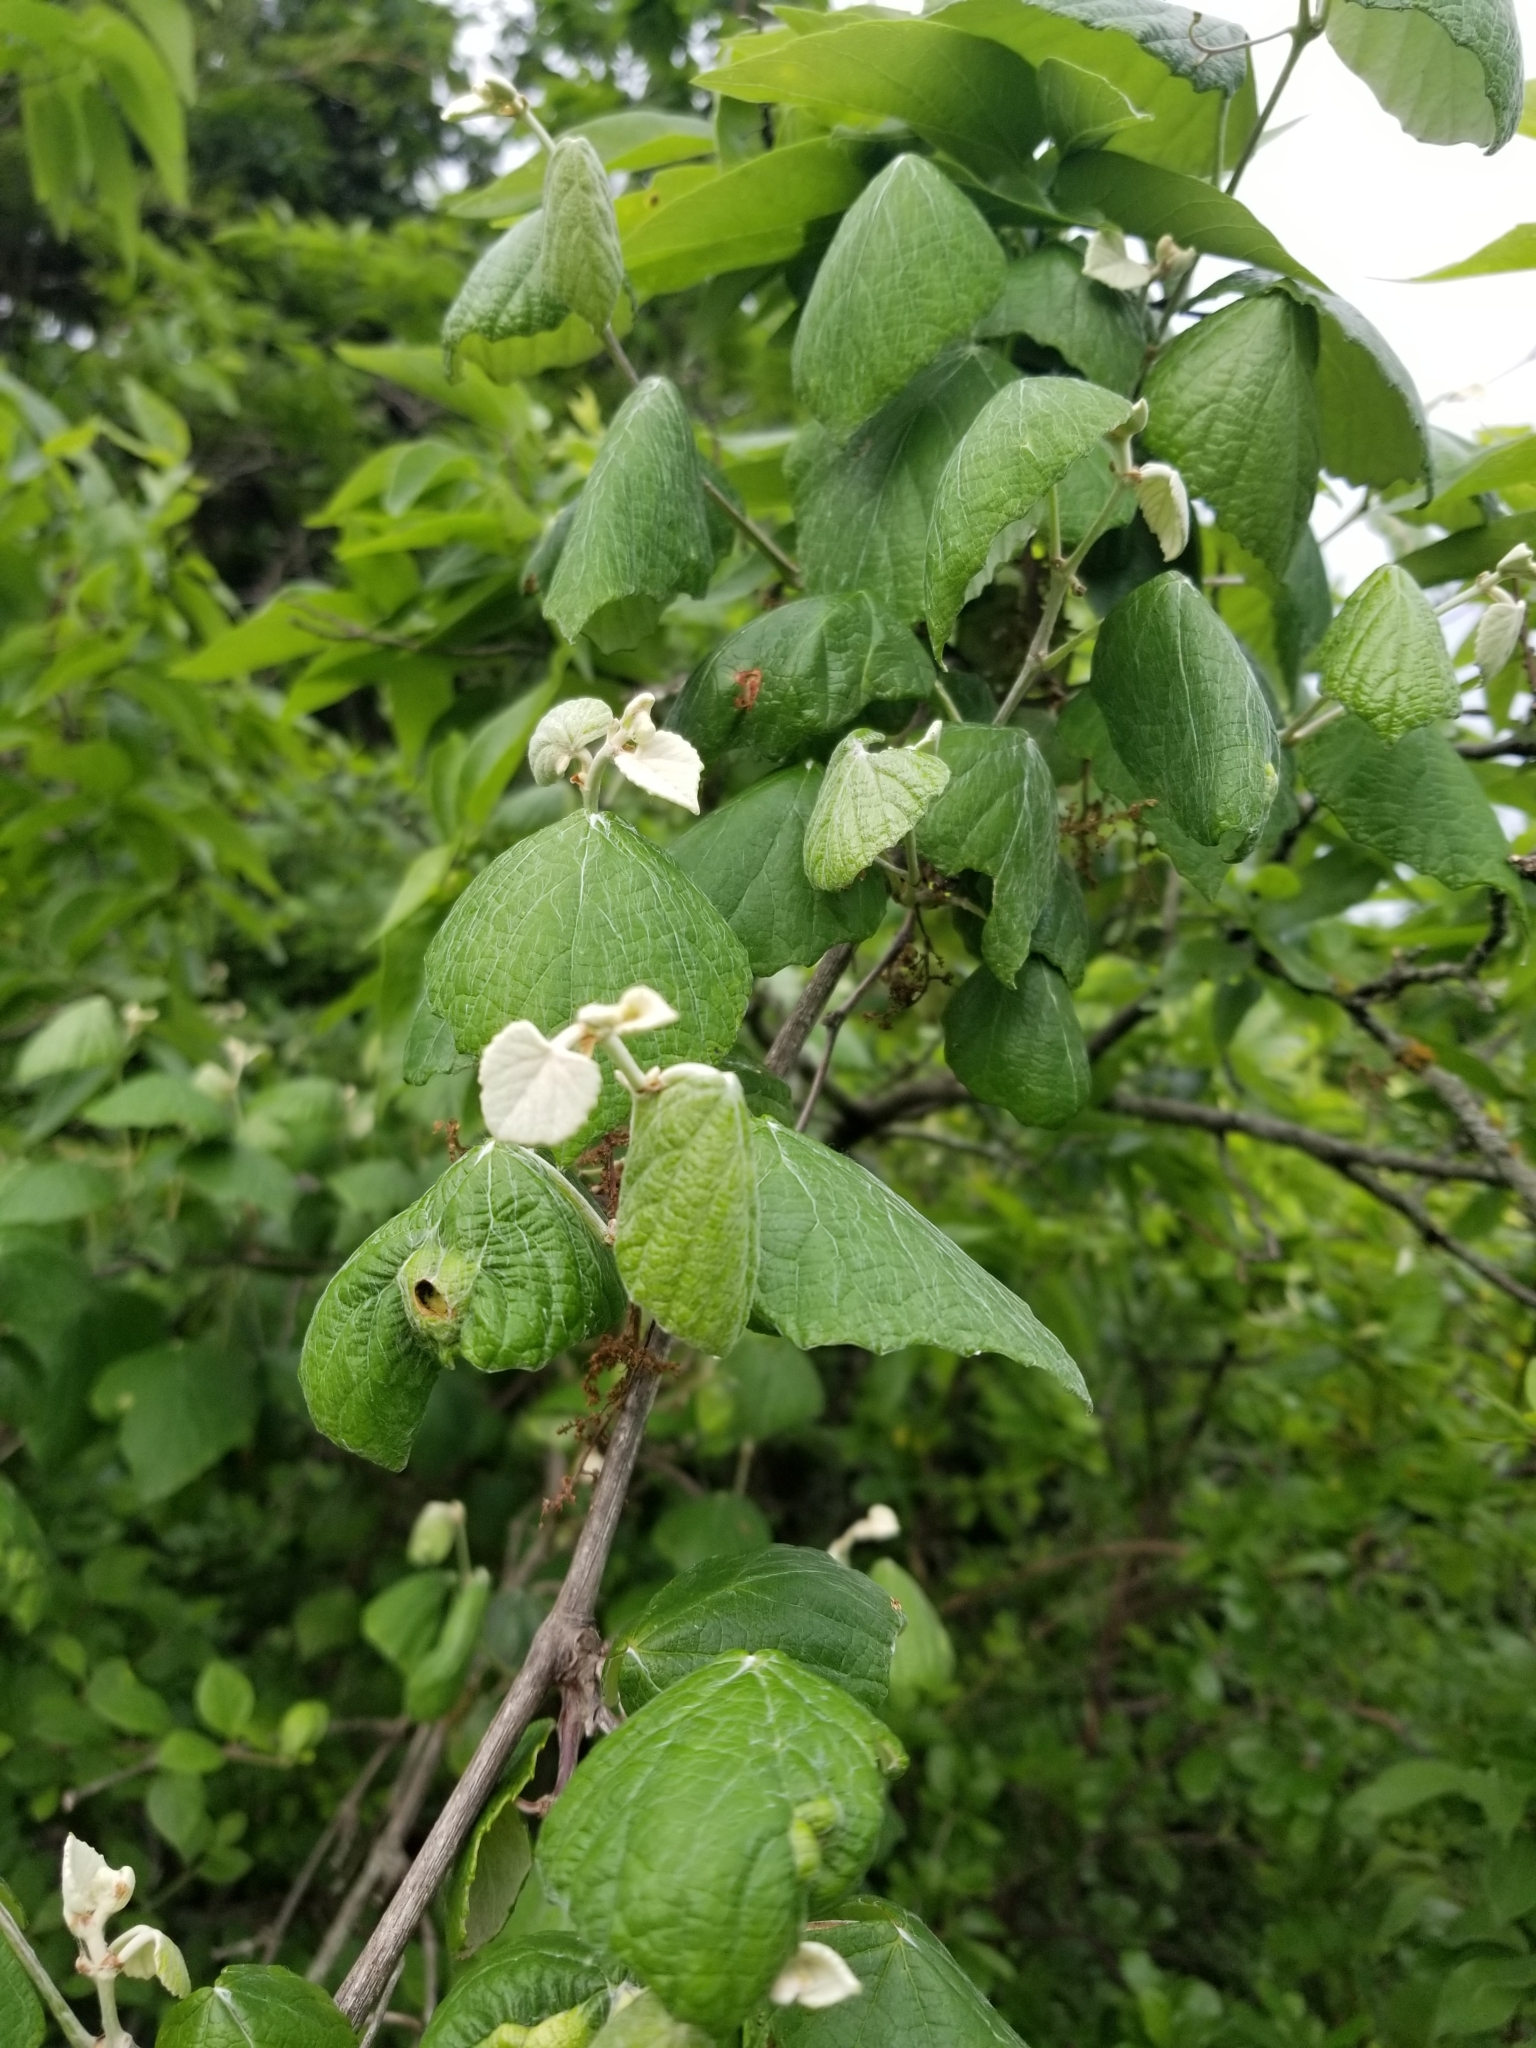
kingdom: Plantae
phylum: Tracheophyta
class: Magnoliopsida
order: Vitales
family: Vitaceae
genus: Vitis
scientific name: Vitis mustangensis
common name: Mustang grape
